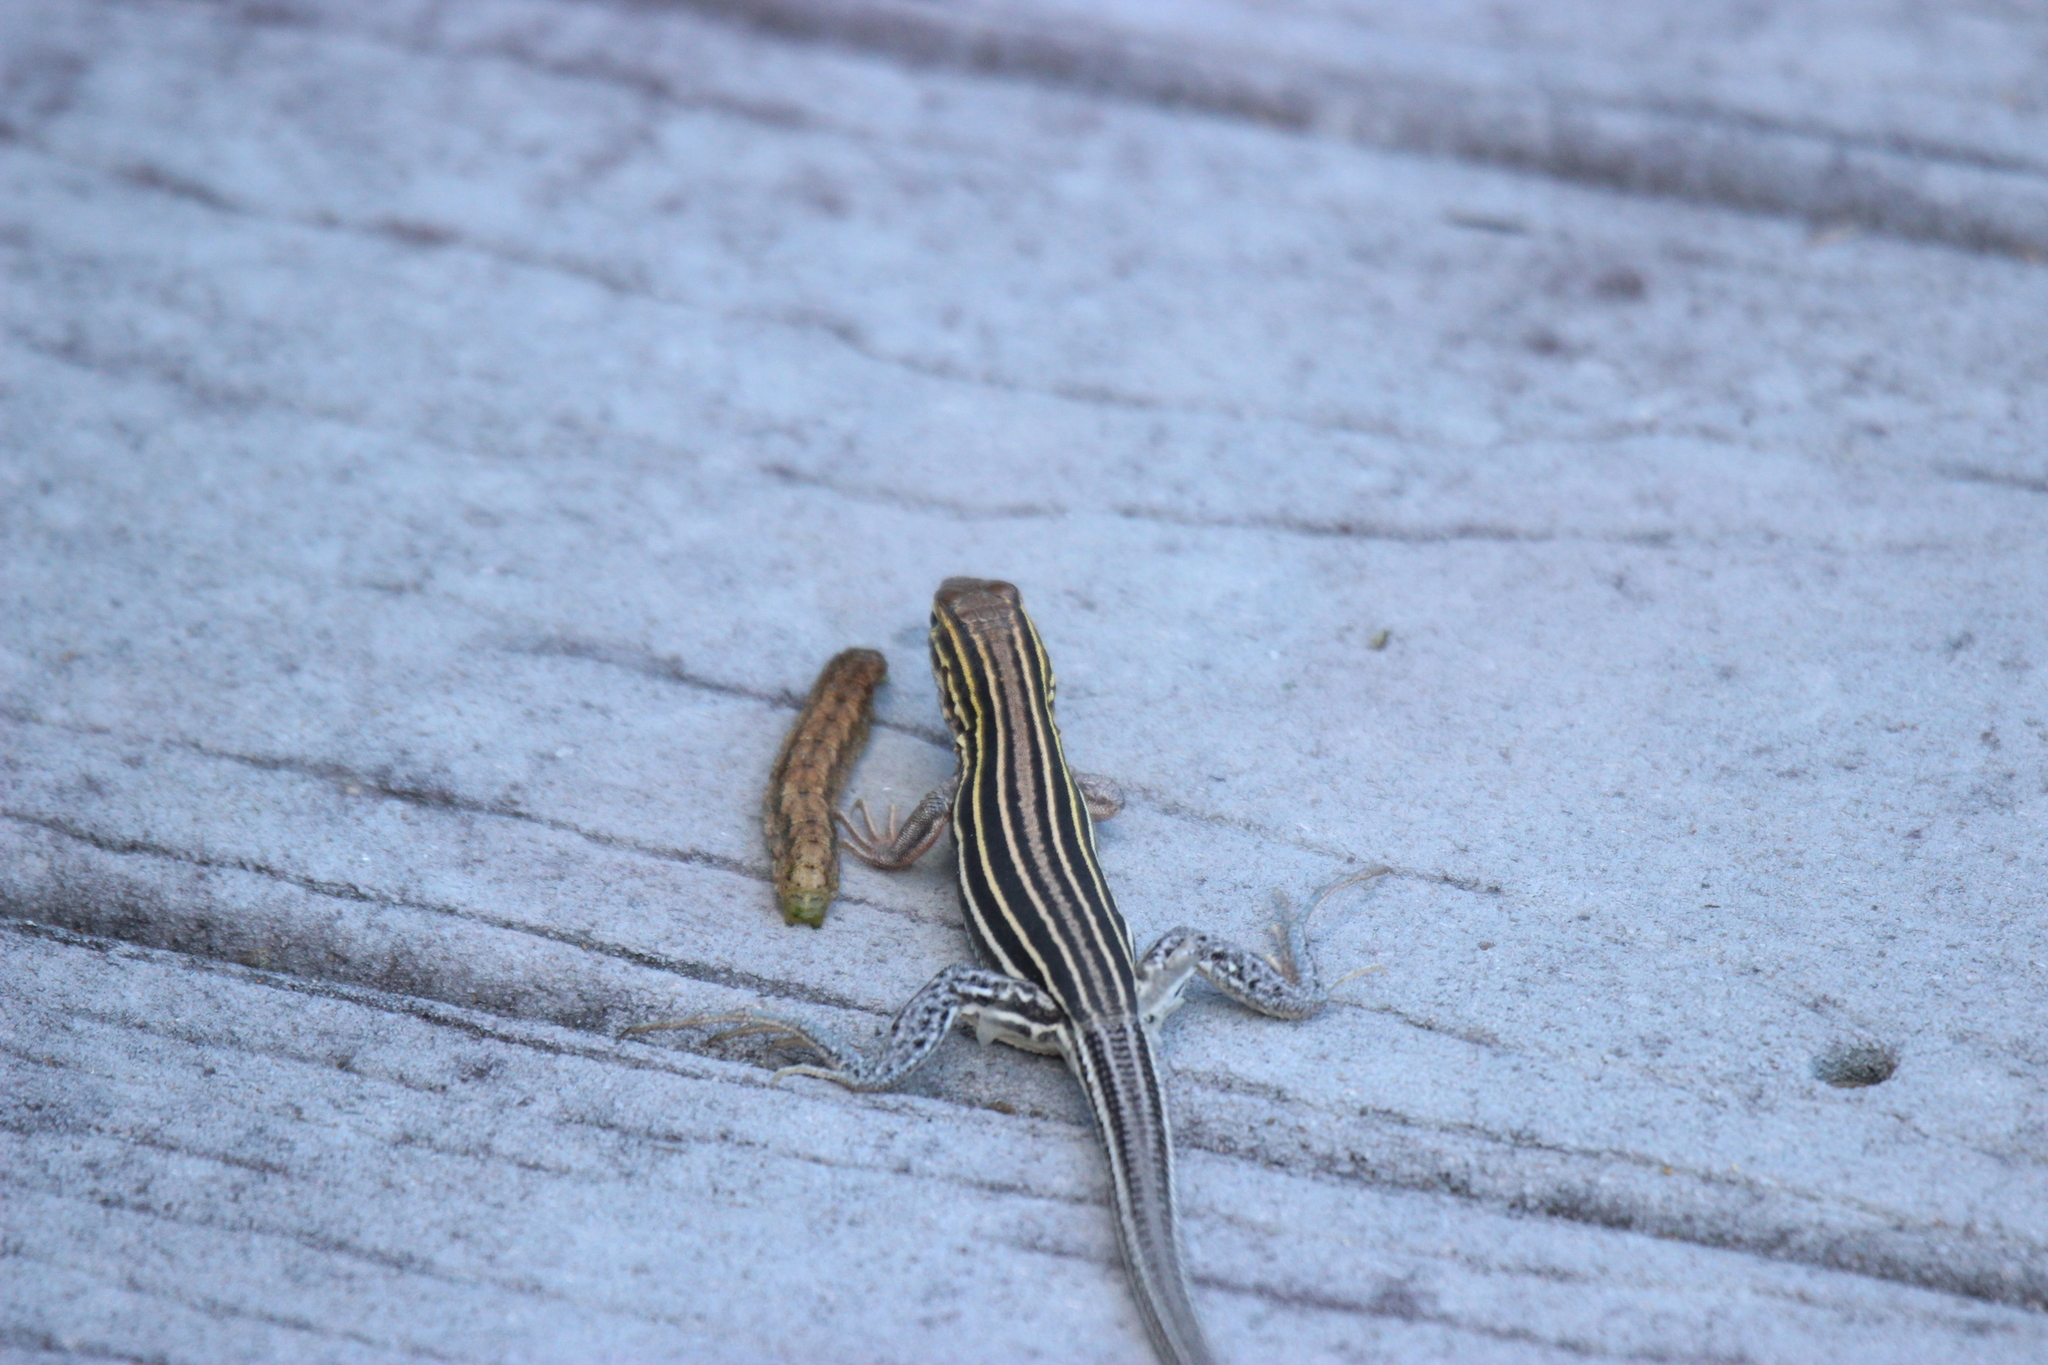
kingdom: Animalia
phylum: Chordata
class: Squamata
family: Teiidae
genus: Aspidoscelis
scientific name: Aspidoscelis sexlineatus
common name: Six-lined racerunner
